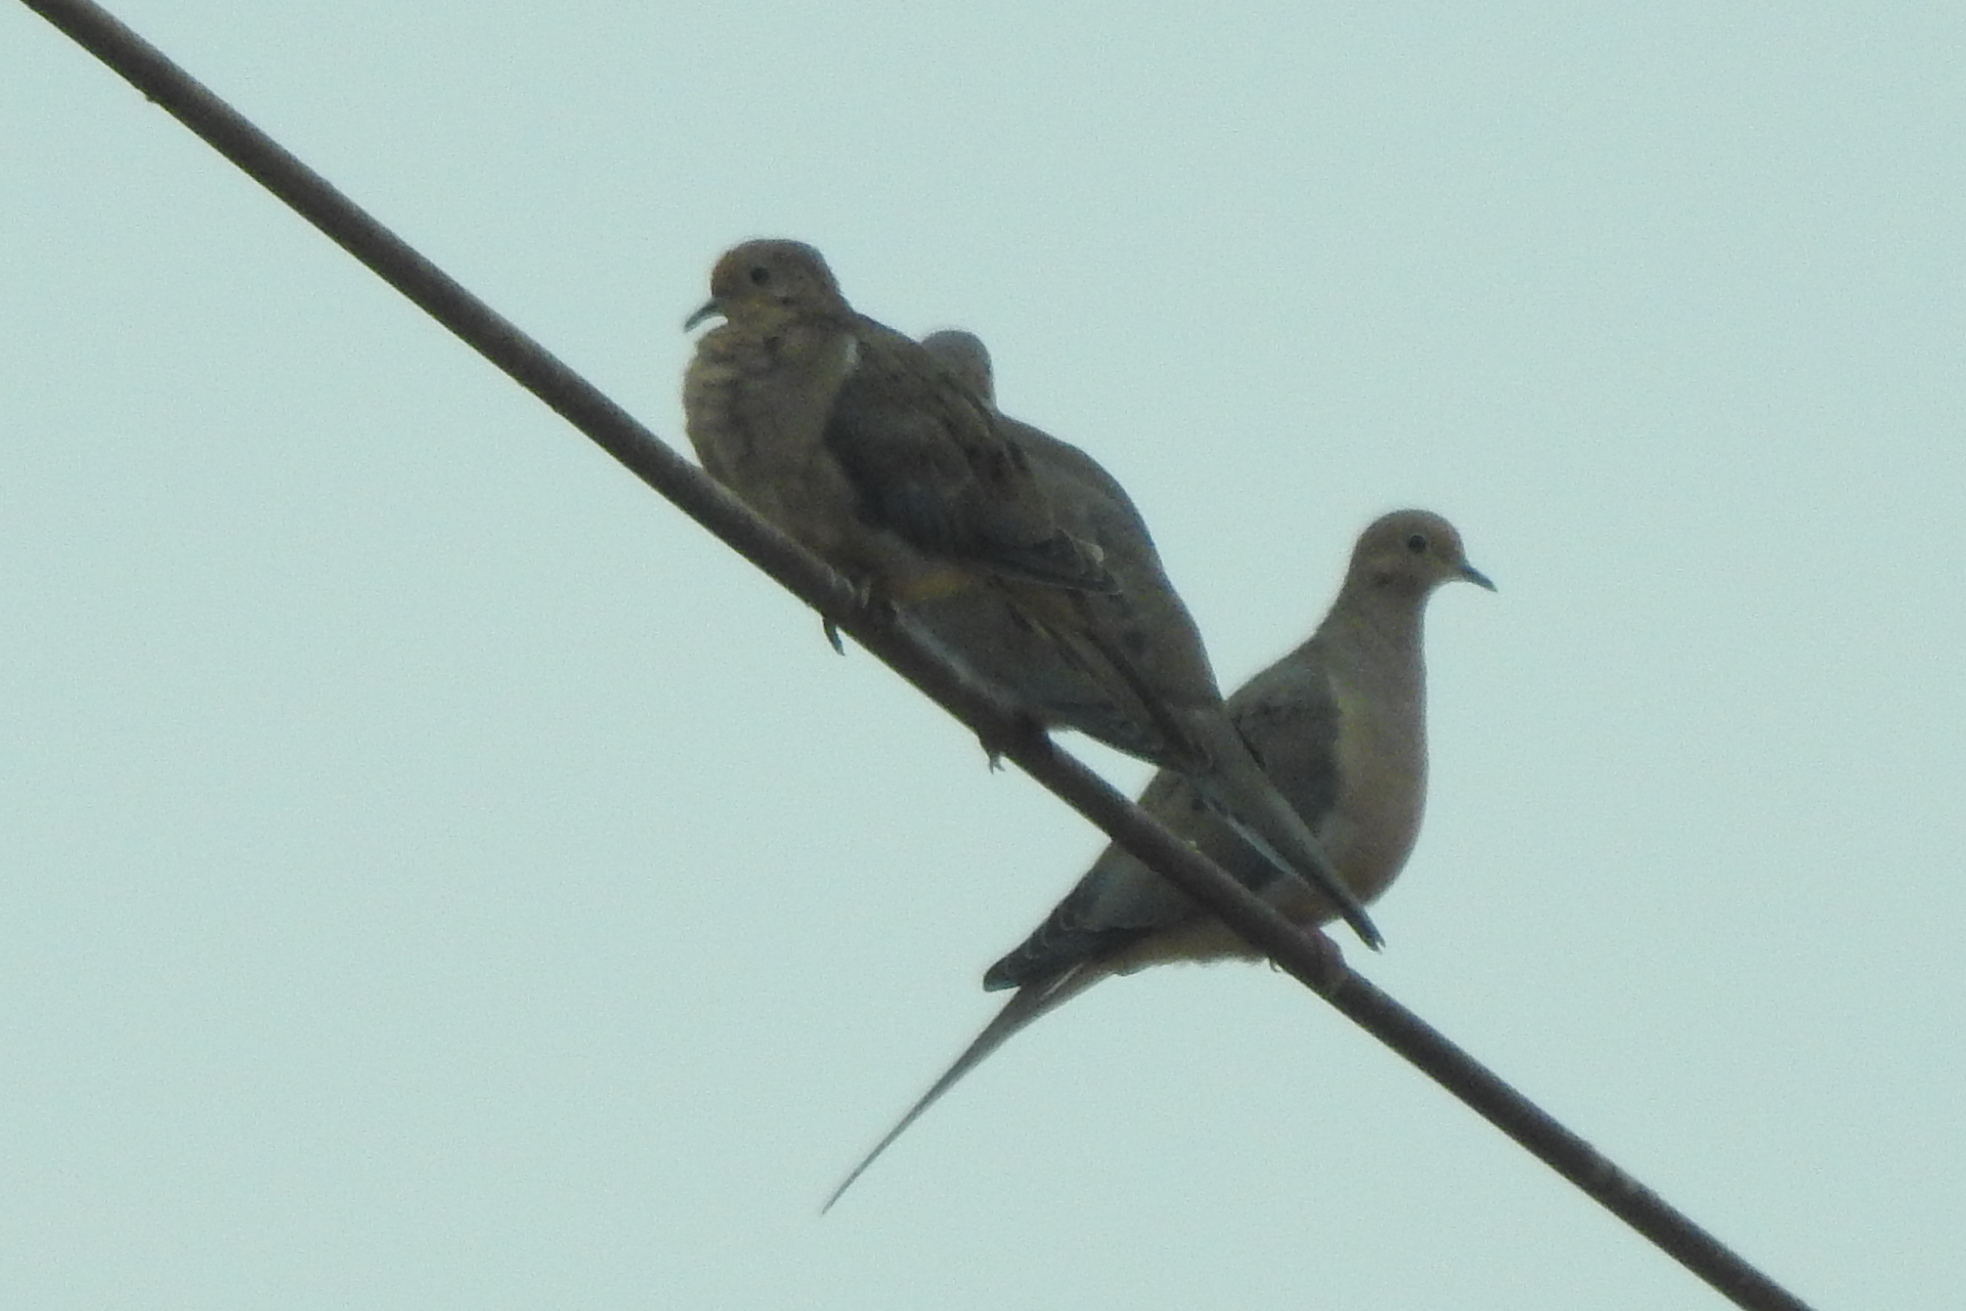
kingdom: Animalia
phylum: Chordata
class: Aves
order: Columbiformes
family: Columbidae
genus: Zenaida
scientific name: Zenaida macroura
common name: Mourning dove
